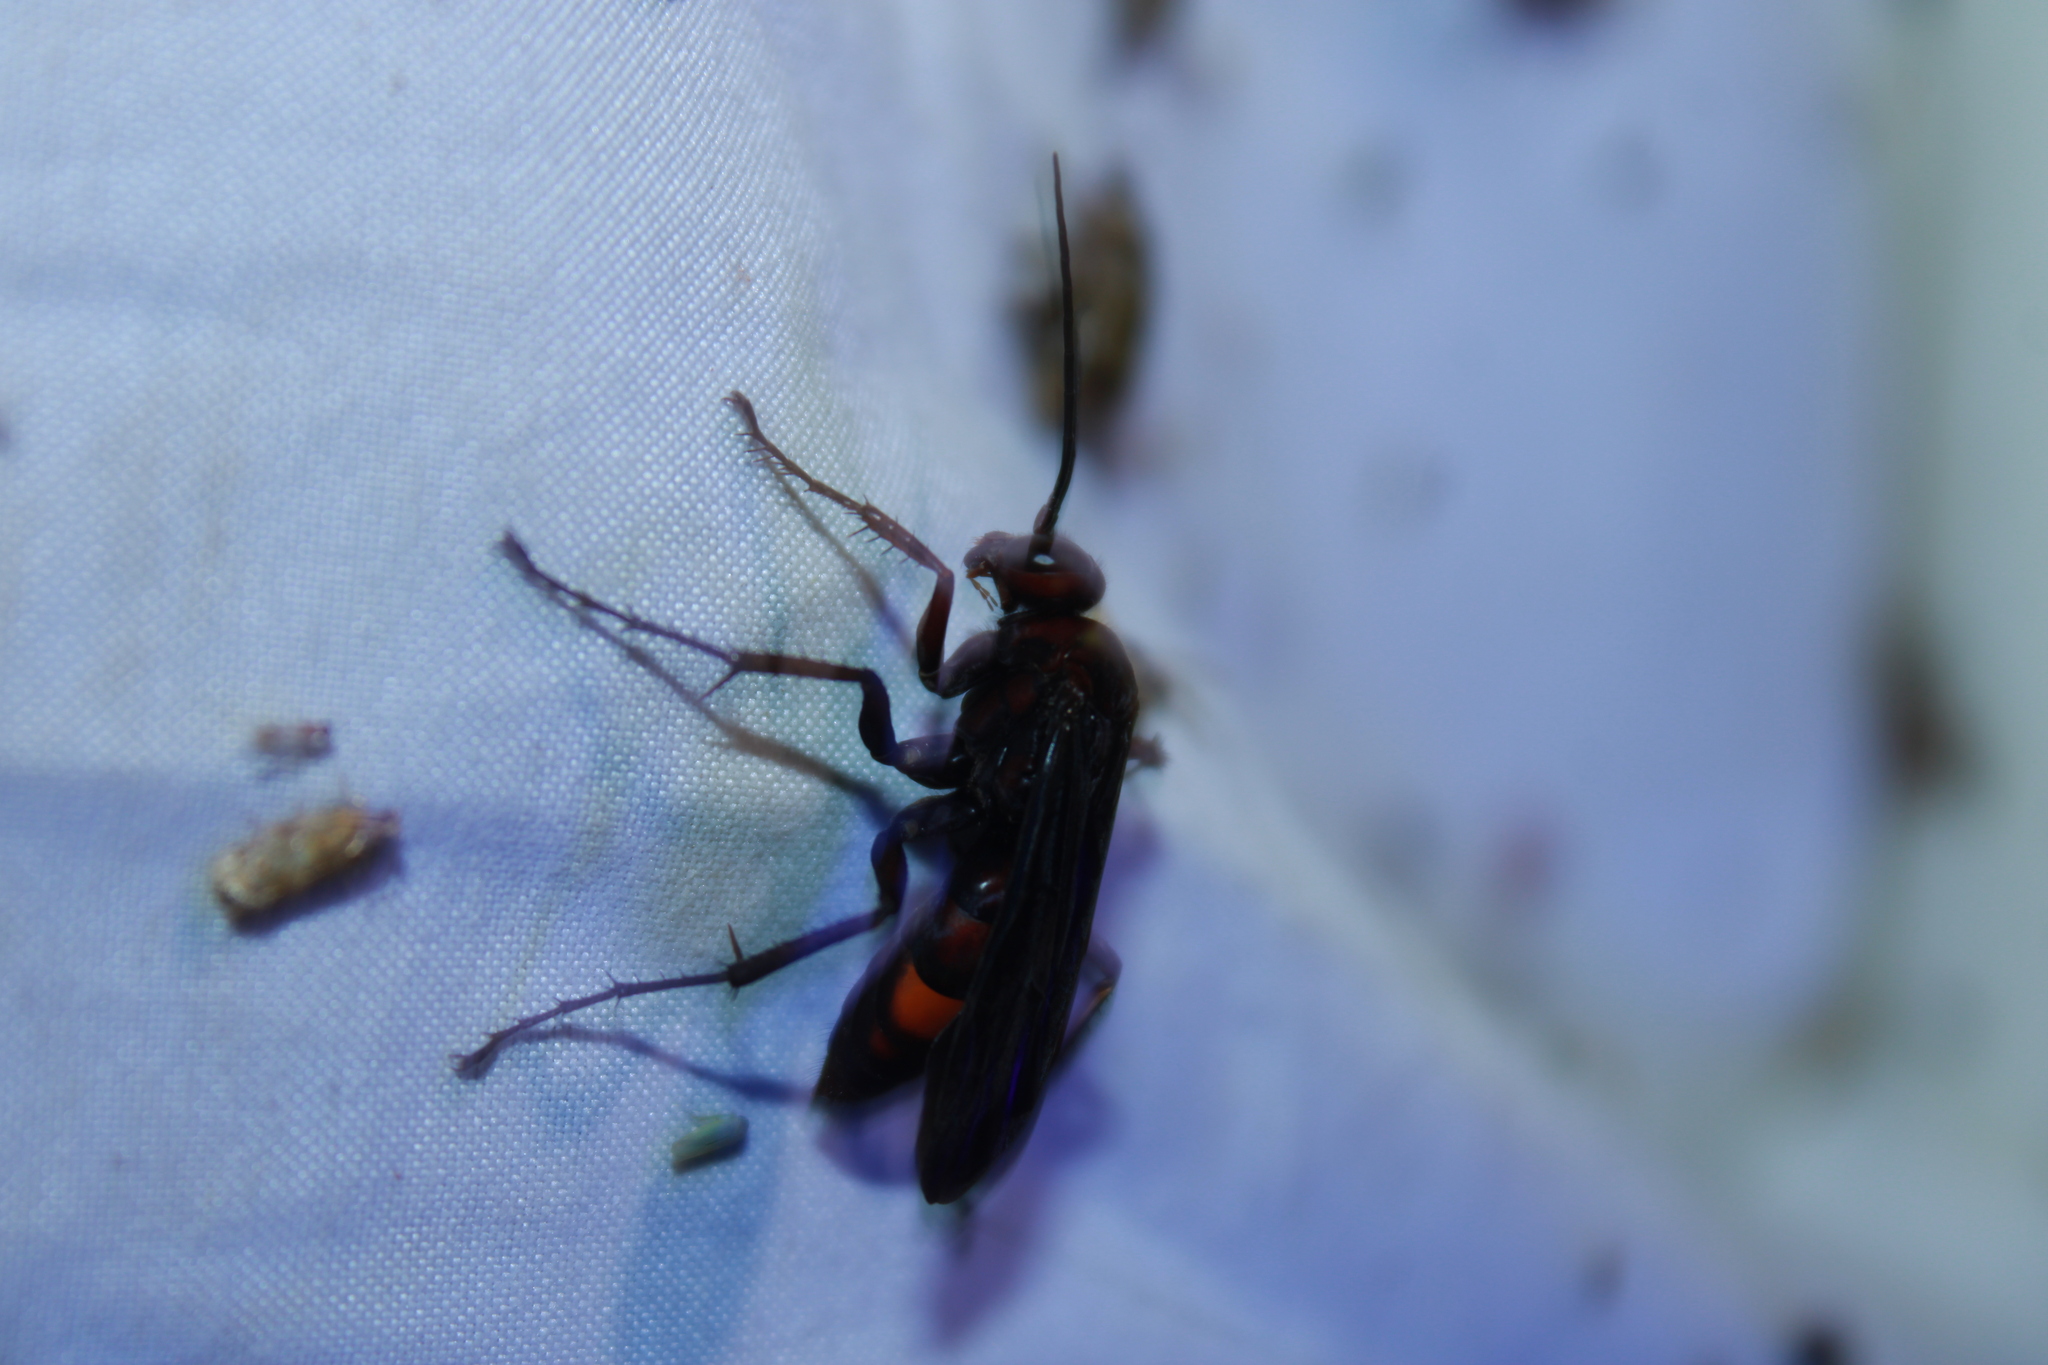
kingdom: Animalia
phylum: Arthropoda
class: Insecta
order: Hymenoptera
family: Pompilidae
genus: Poecilopompilus
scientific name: Poecilopompilus algidus
